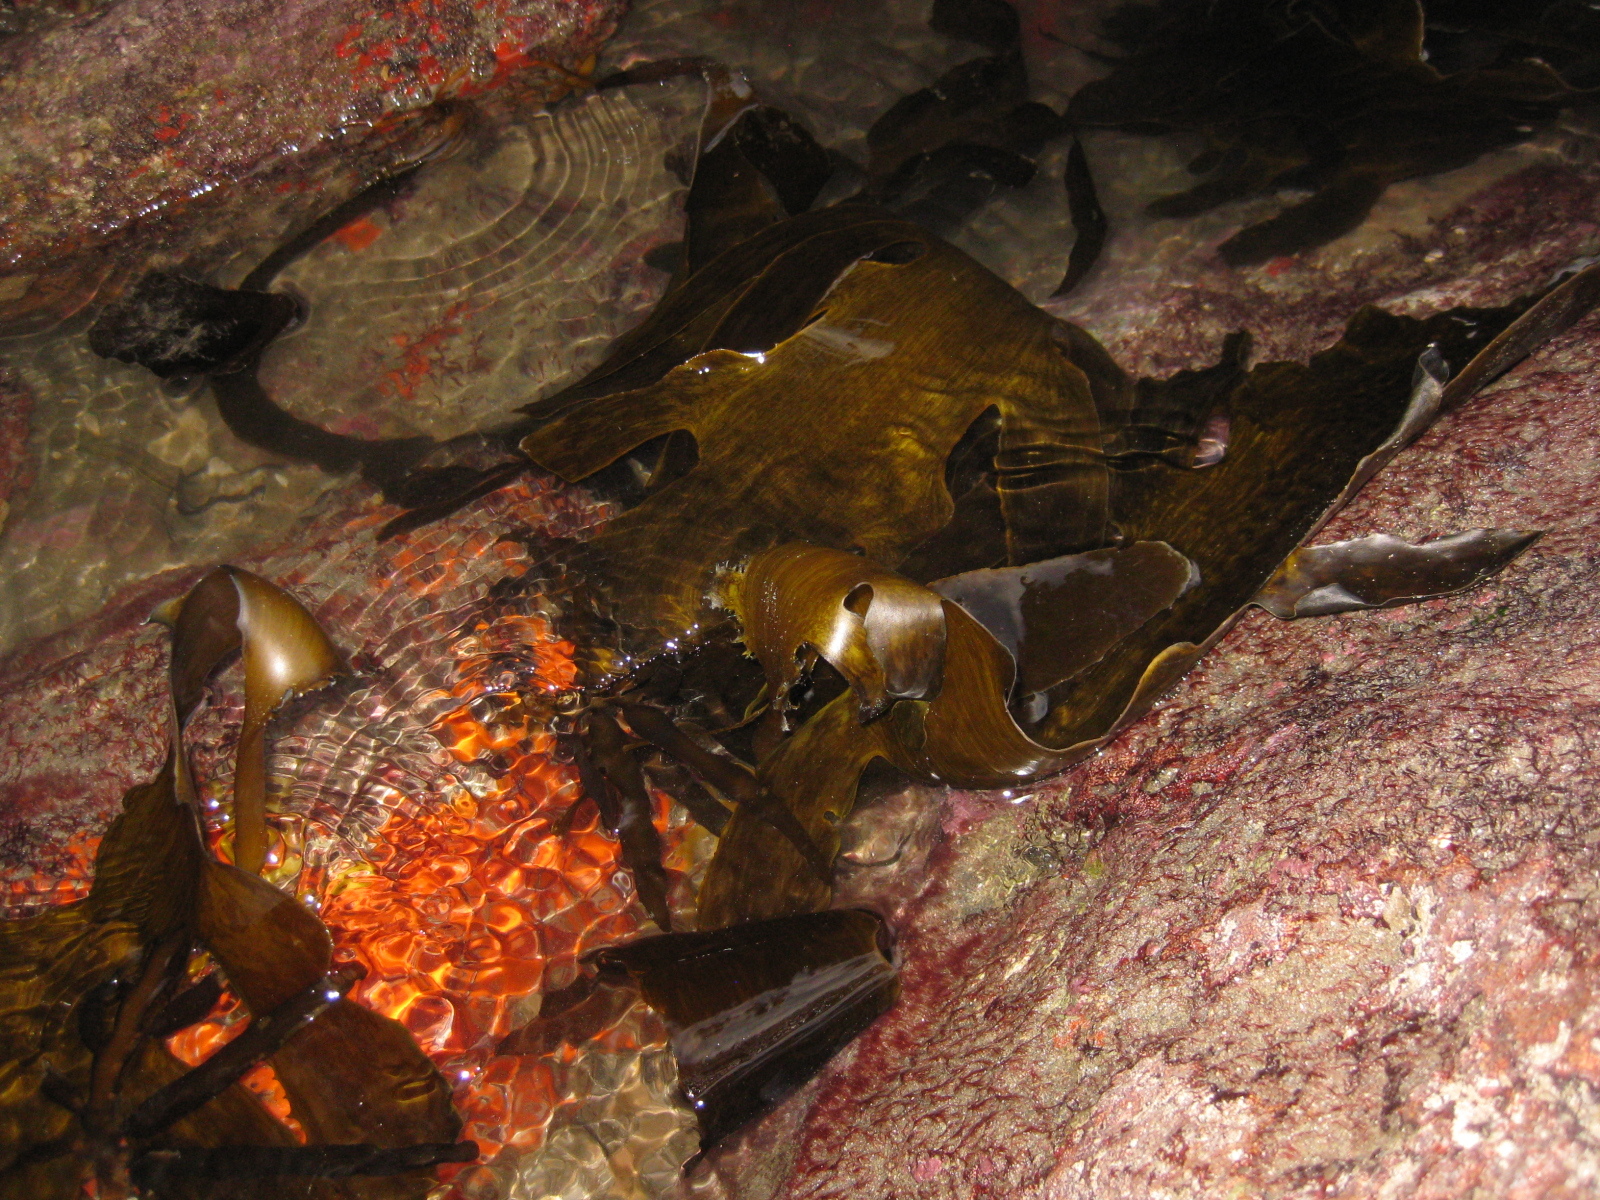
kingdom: Chromista
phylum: Ochrophyta
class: Phaeophyceae
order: Laminariales
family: Lessoniaceae
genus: Ecklonia
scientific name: Ecklonia radiata
